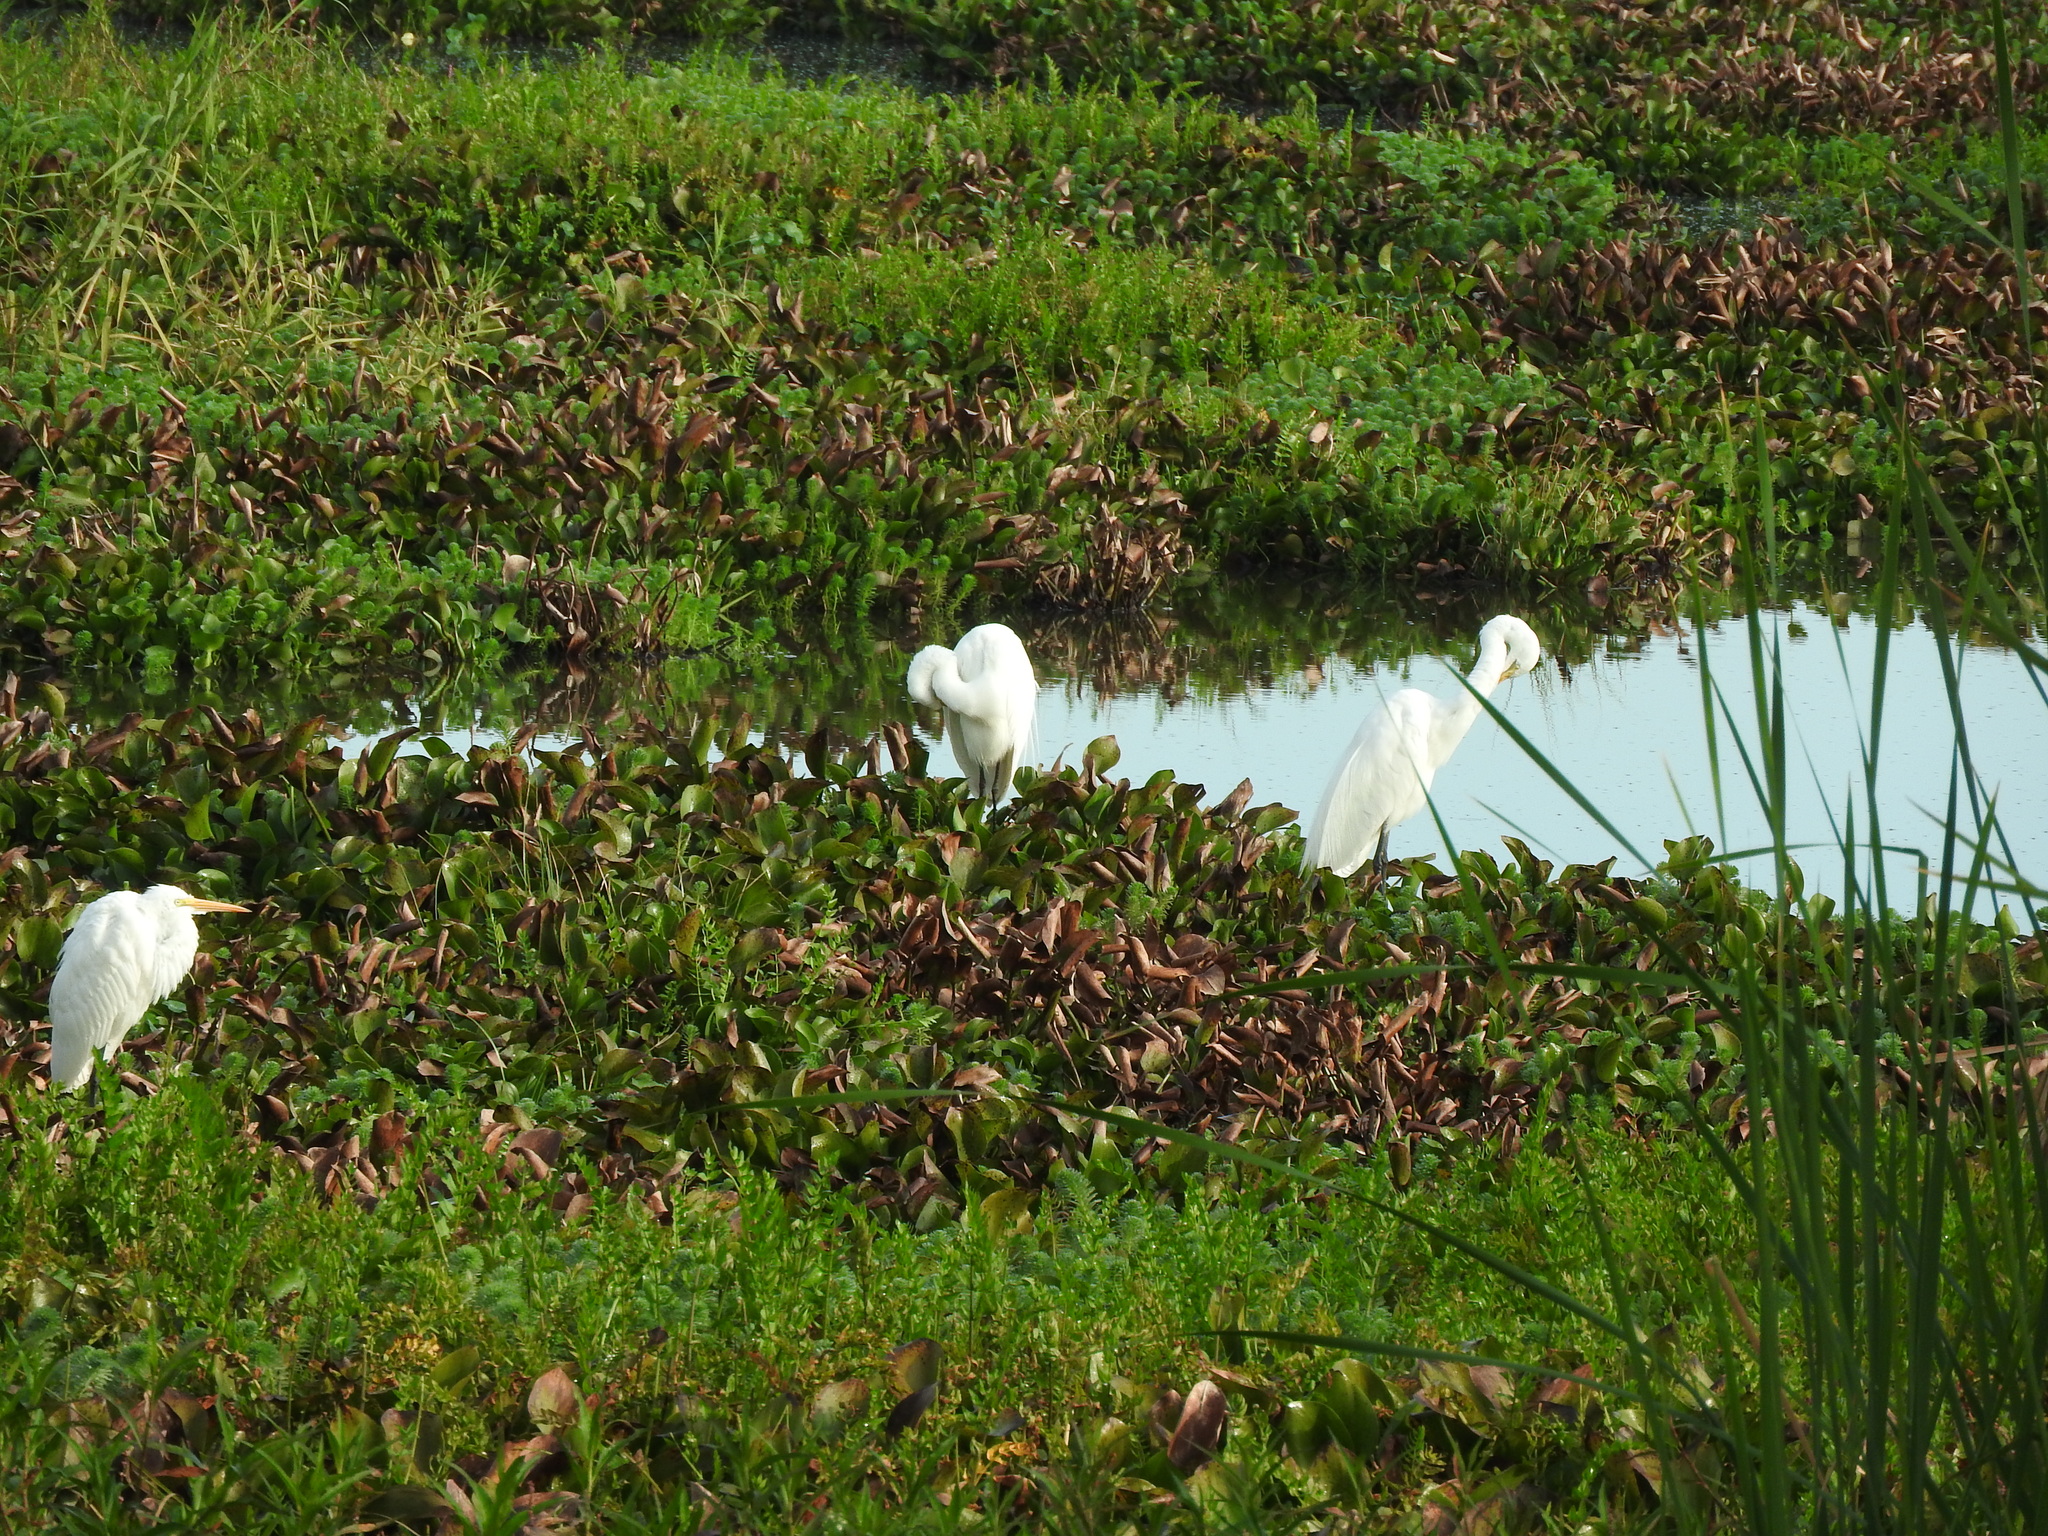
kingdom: Animalia
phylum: Chordata
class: Aves
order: Pelecaniformes
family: Ardeidae
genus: Ardea
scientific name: Ardea alba
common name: Great egret
